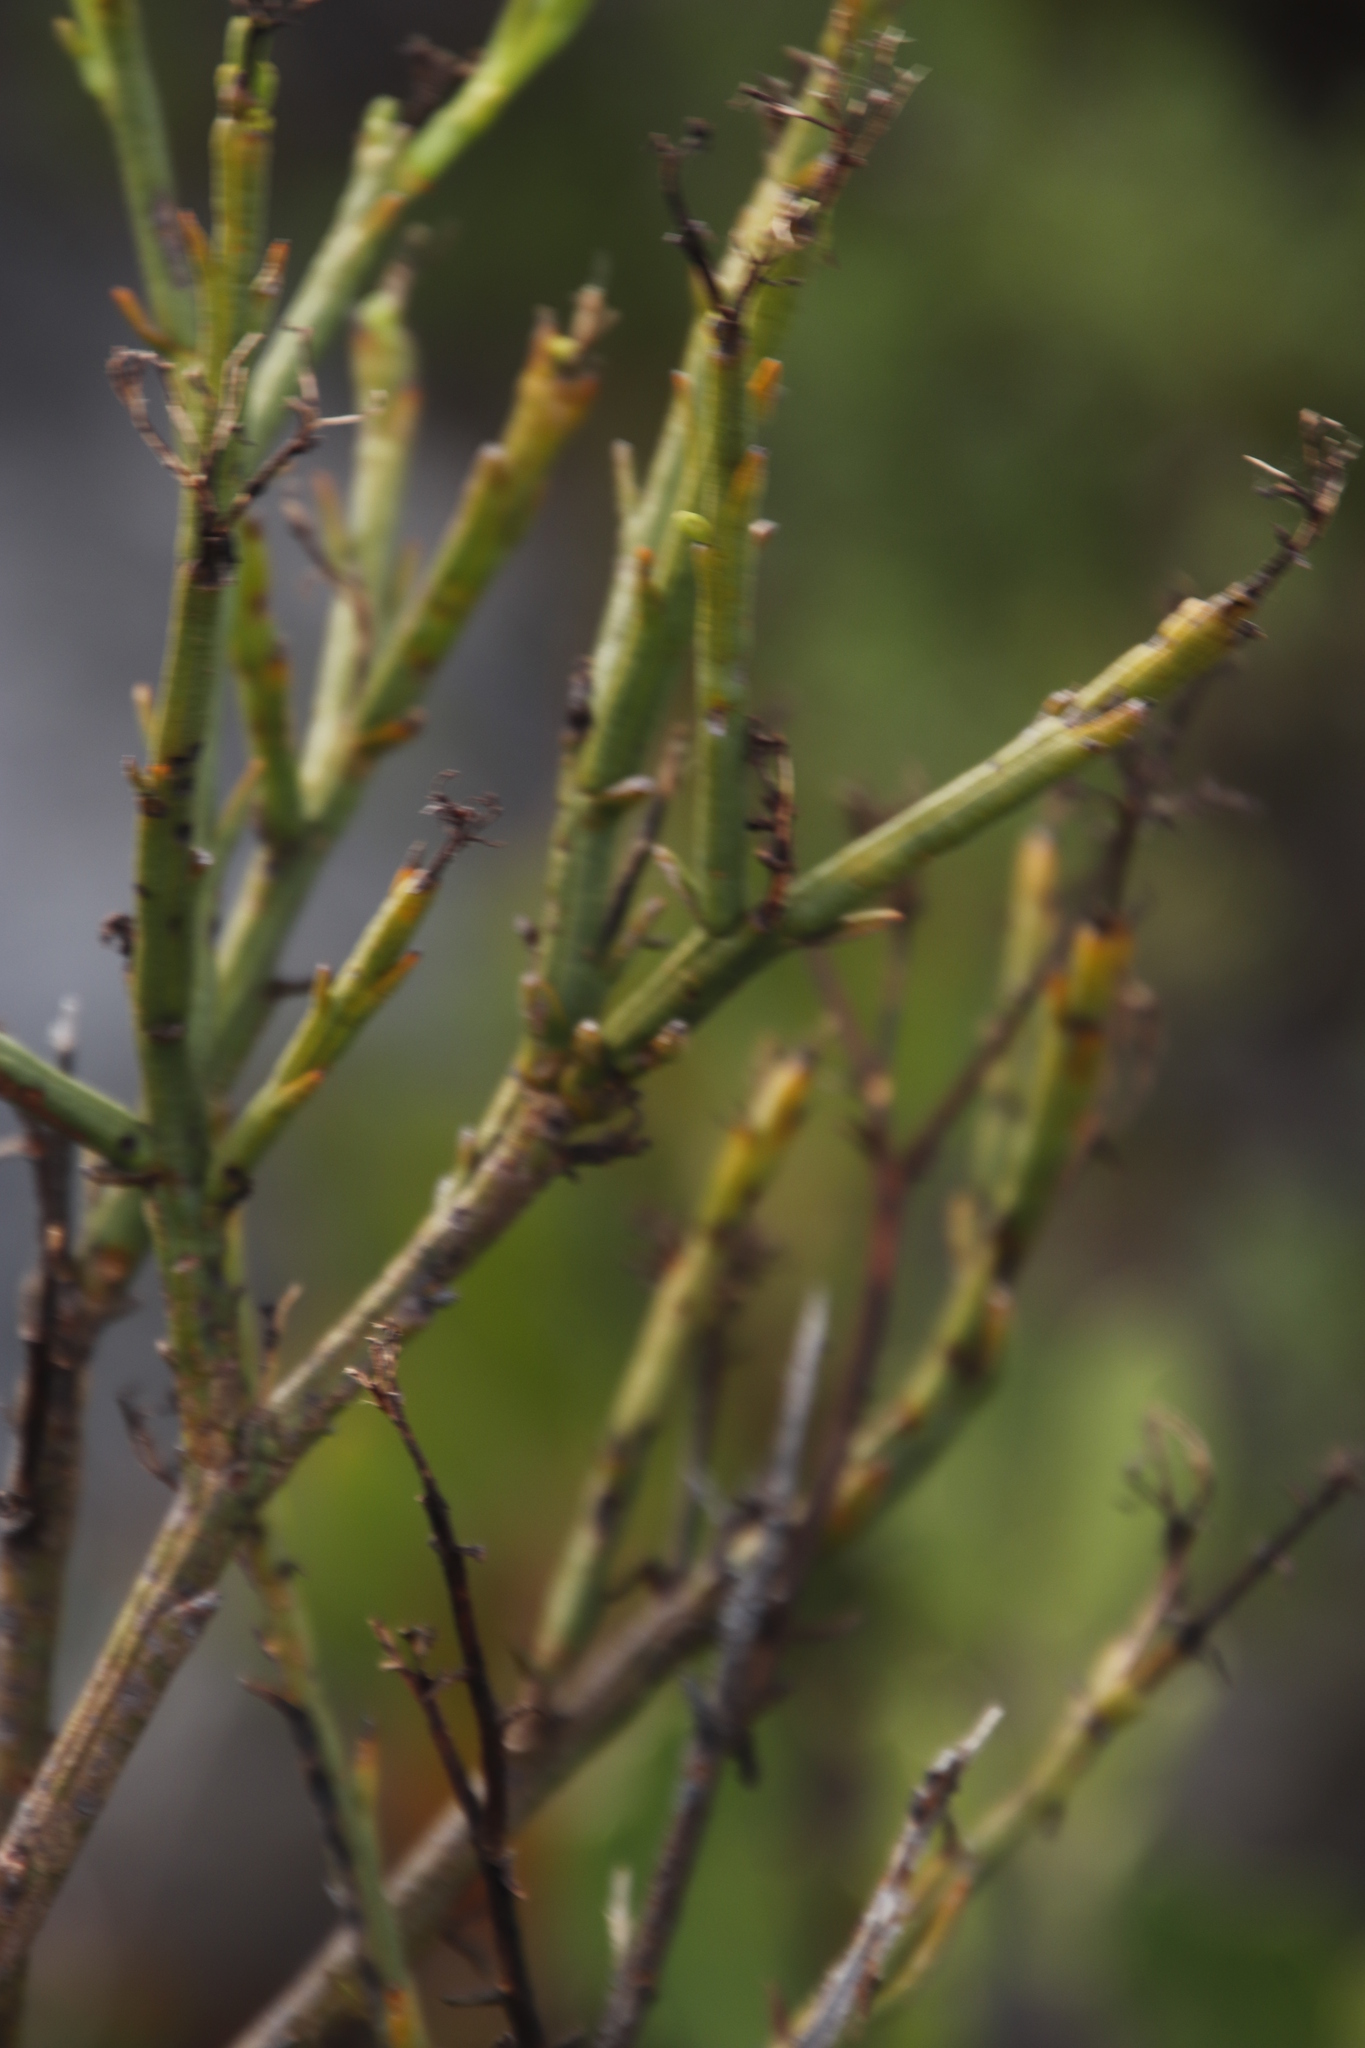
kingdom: Plantae
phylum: Tracheophyta
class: Magnoliopsida
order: Santalales
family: Thesiaceae
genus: Thesium
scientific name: Thesium strictum
